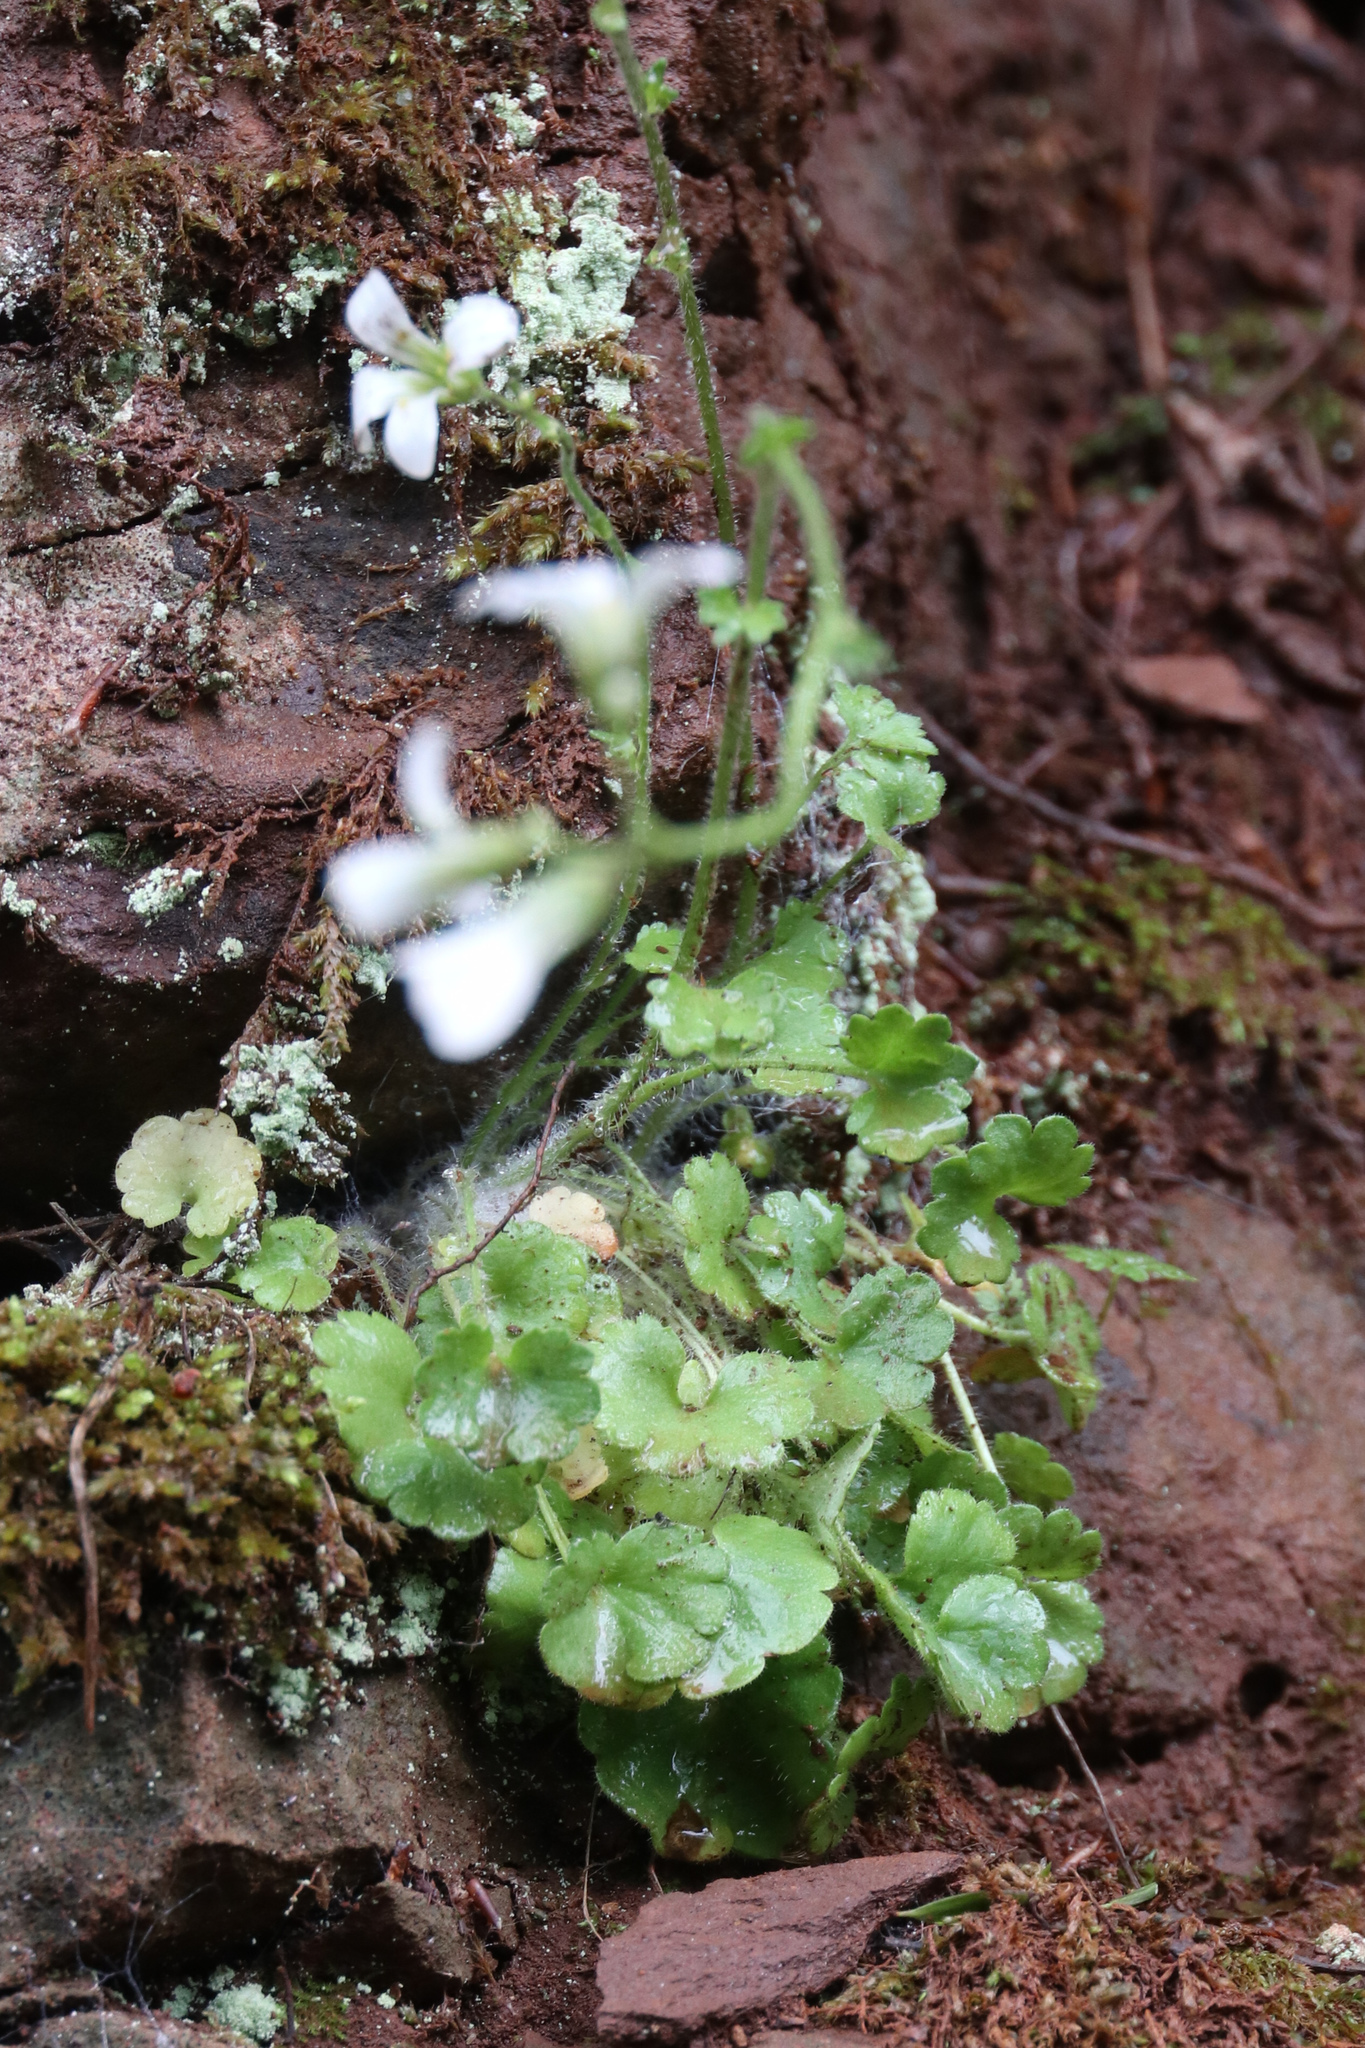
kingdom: Plantae
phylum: Tracheophyta
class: Magnoliopsida
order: Saxifragales
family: Saxifragaceae
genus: Saxifraga
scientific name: Saxifraga granulata
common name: Meadow saxifrage
